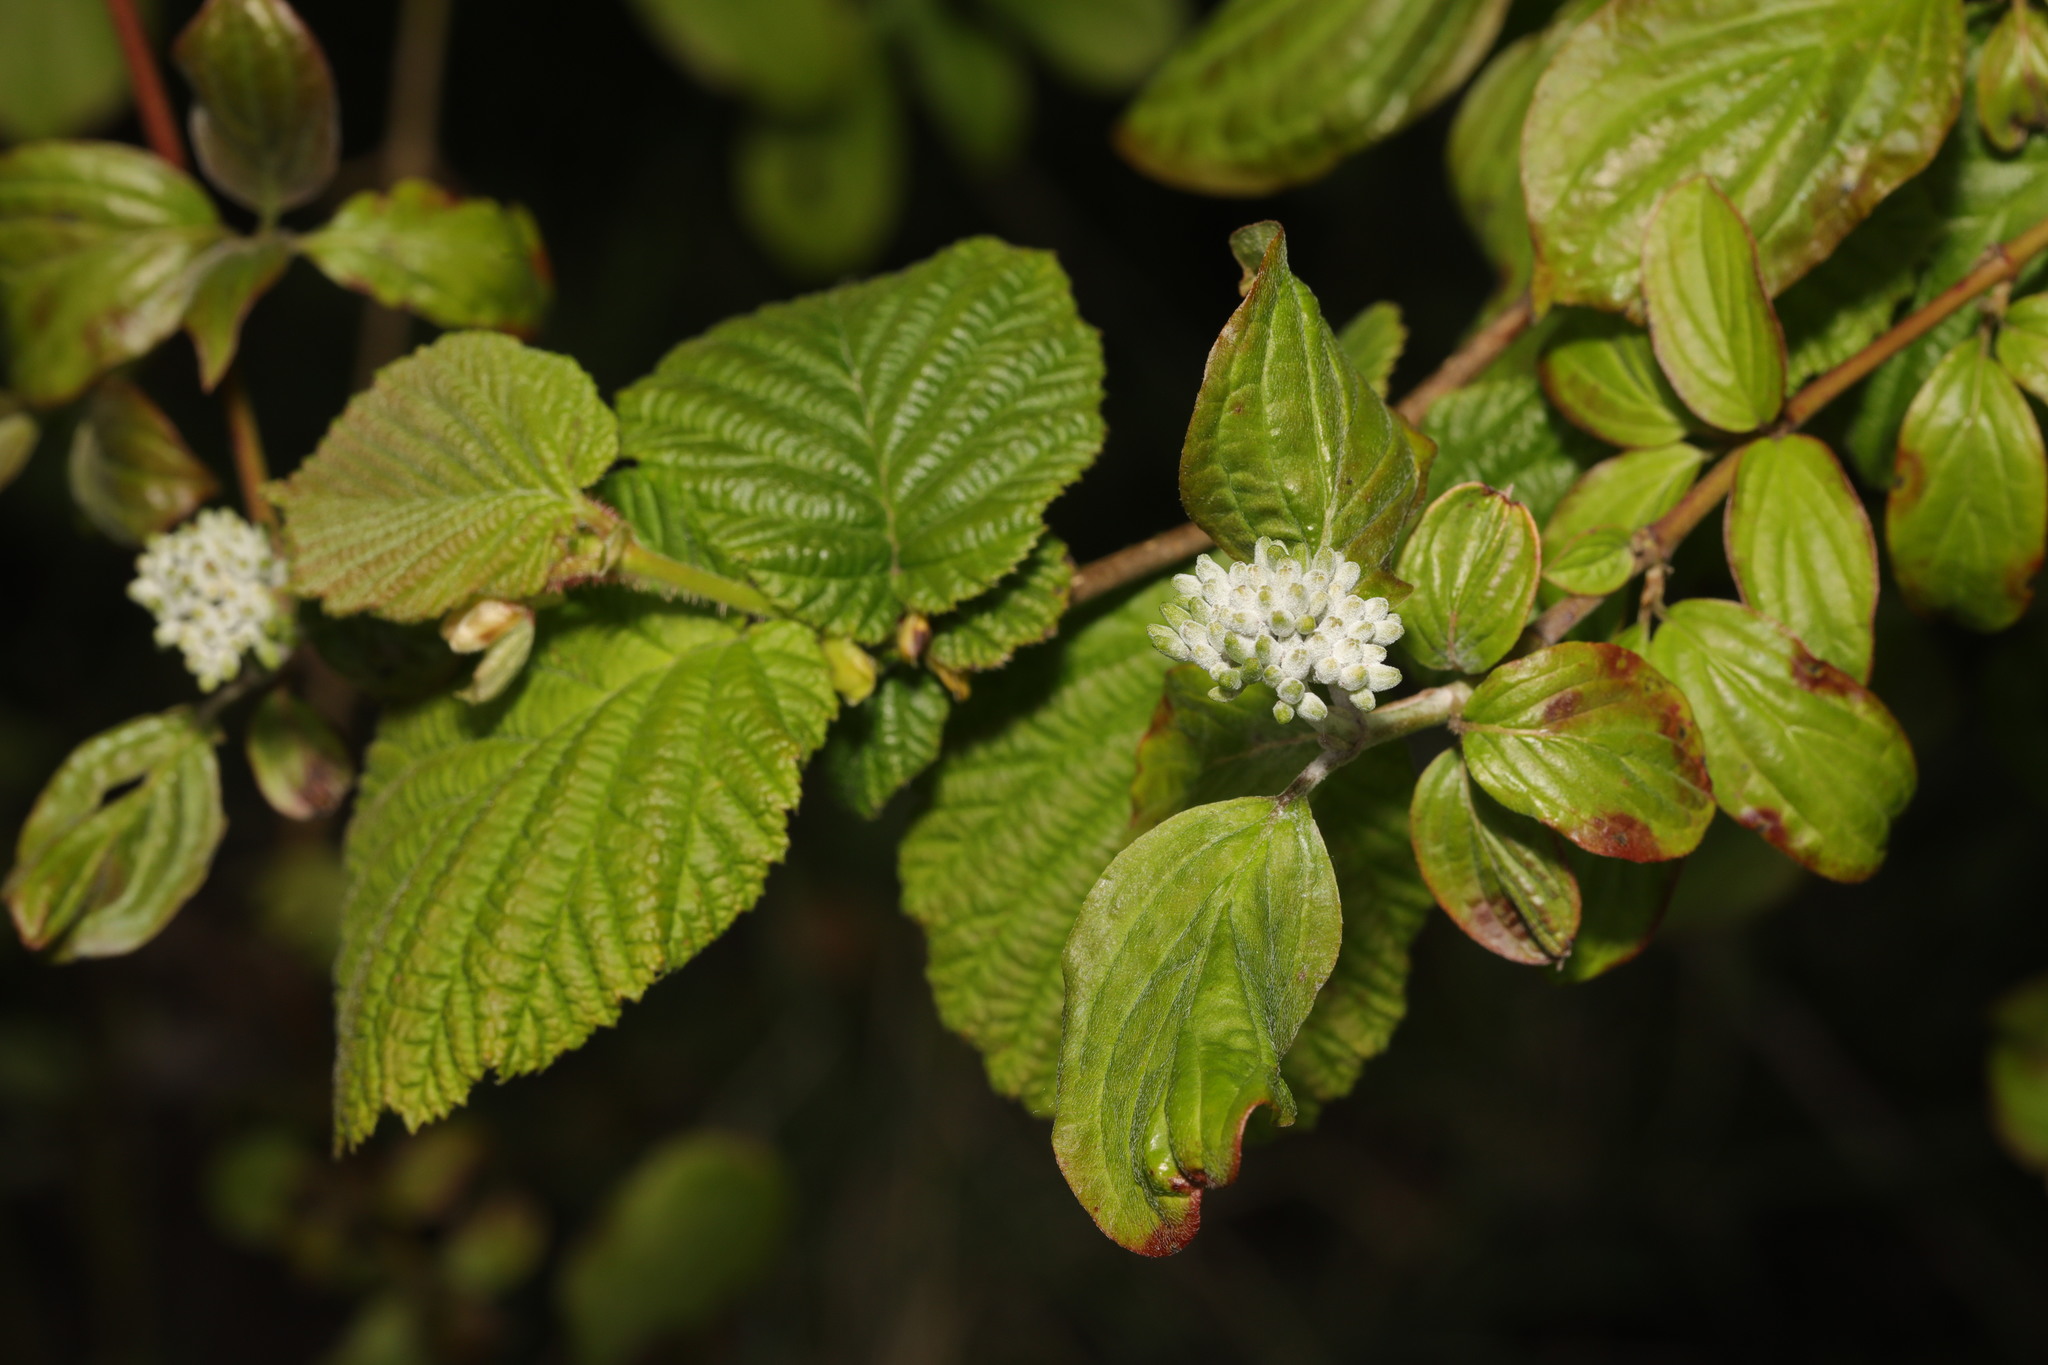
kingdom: Plantae
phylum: Tracheophyta
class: Magnoliopsida
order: Cornales
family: Cornaceae
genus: Cornus
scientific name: Cornus sanguinea
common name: Dogwood
